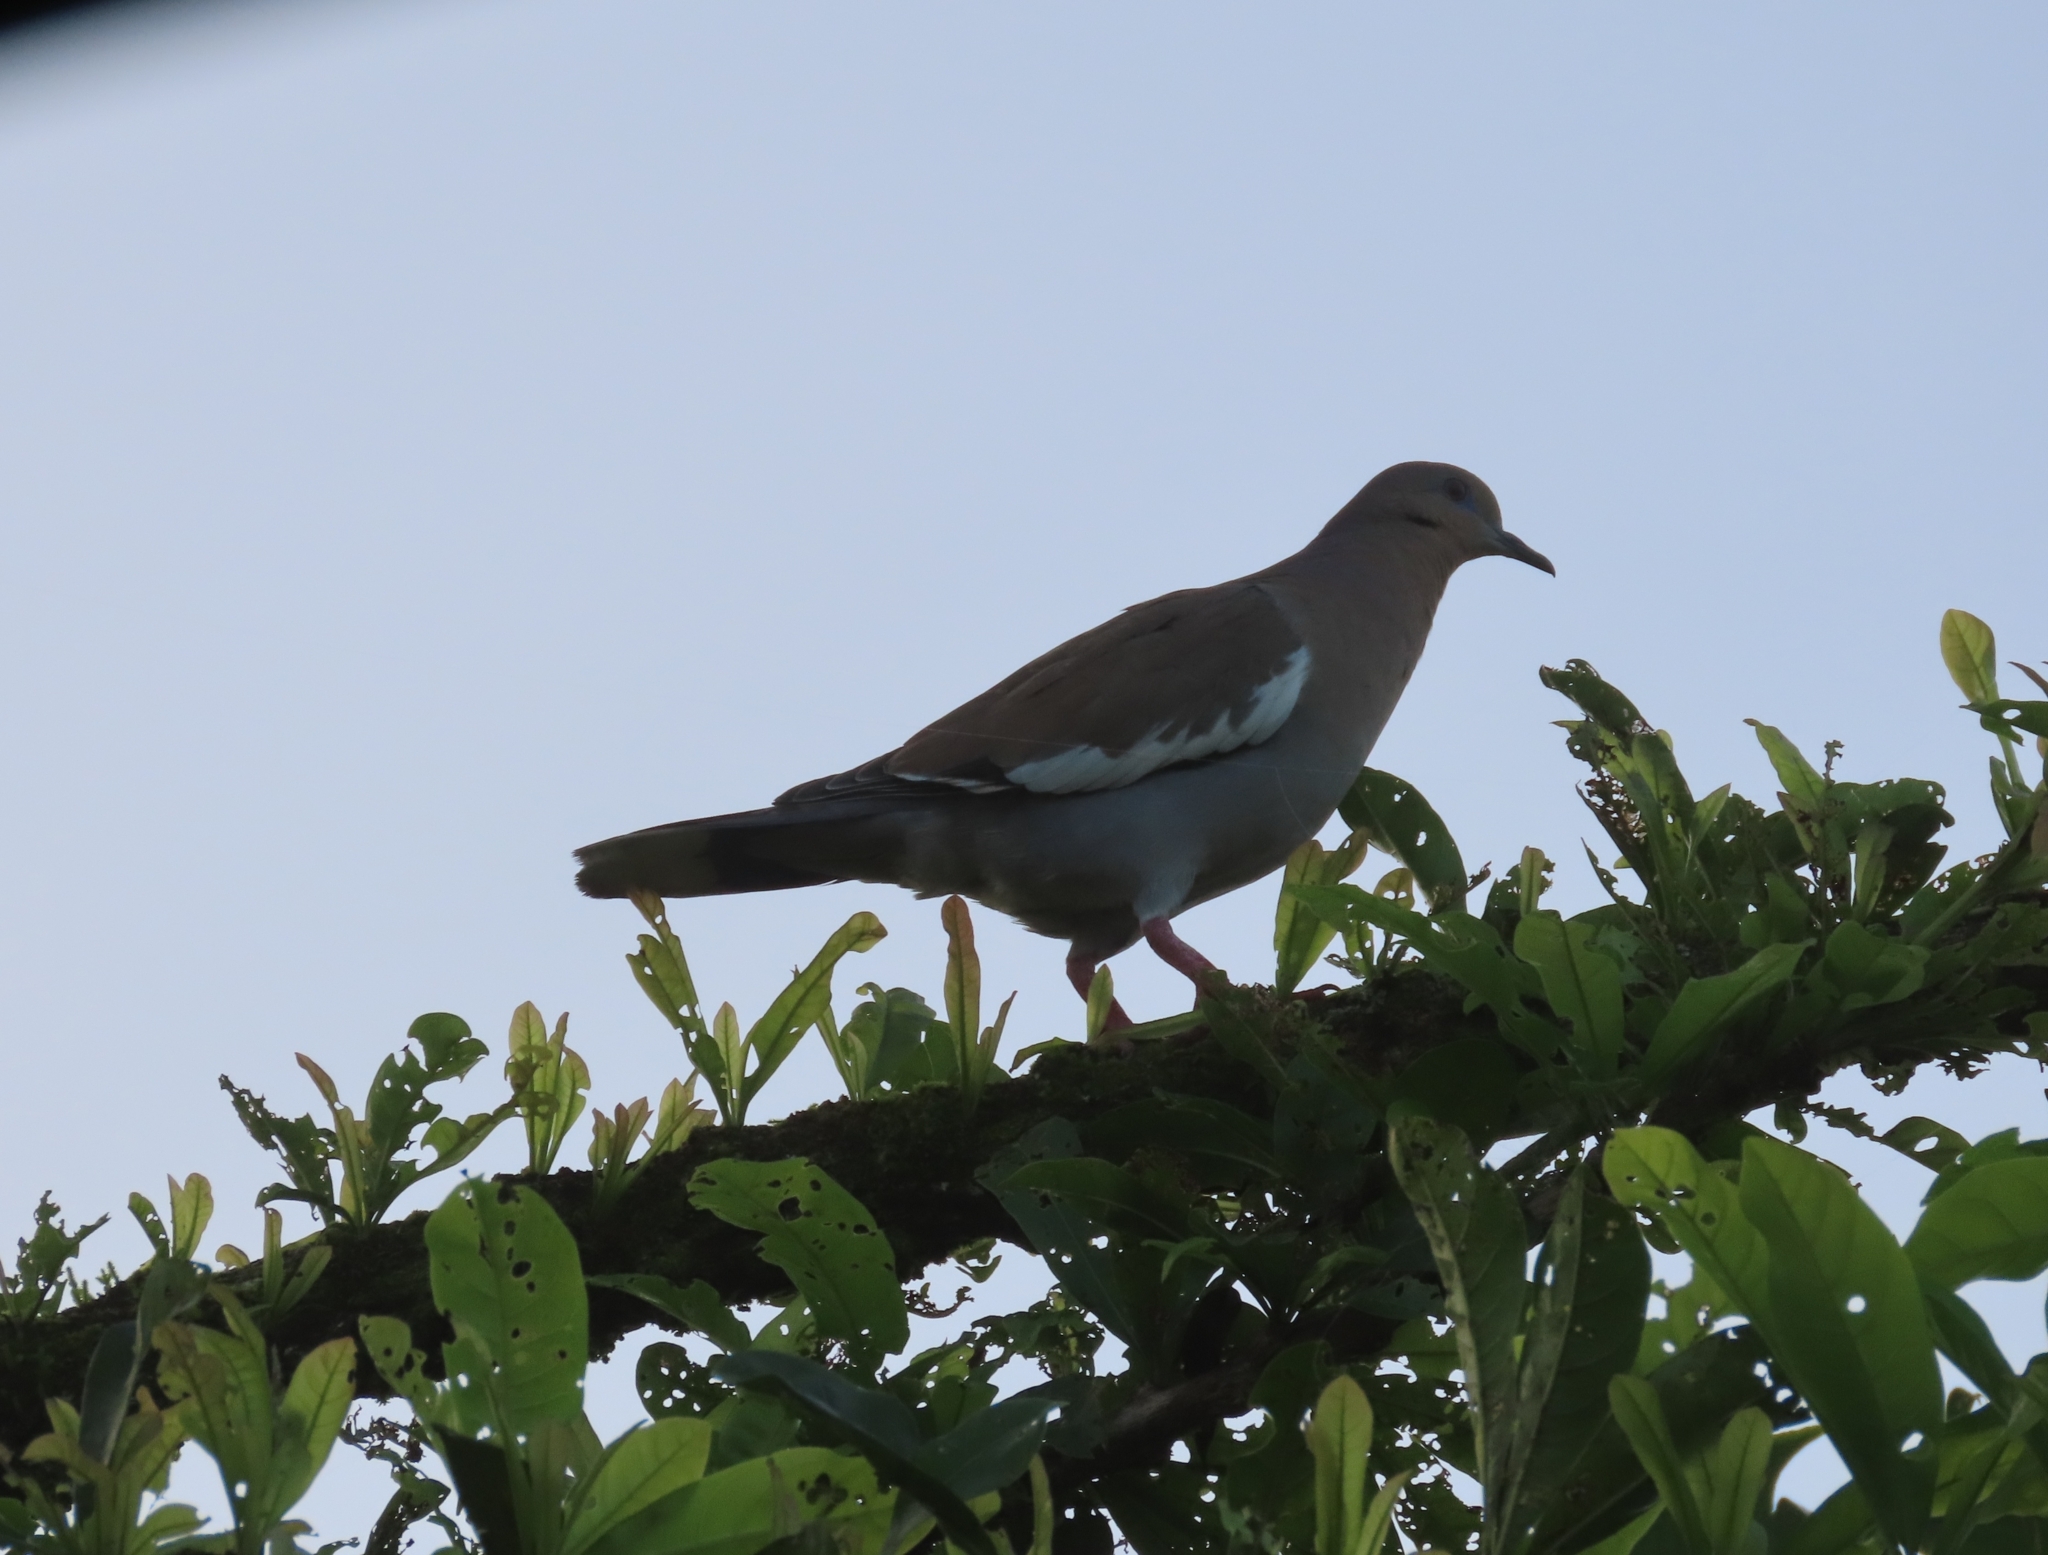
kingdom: Animalia
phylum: Chordata
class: Aves
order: Columbiformes
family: Columbidae
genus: Zenaida
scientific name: Zenaida asiatica
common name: White-winged dove
